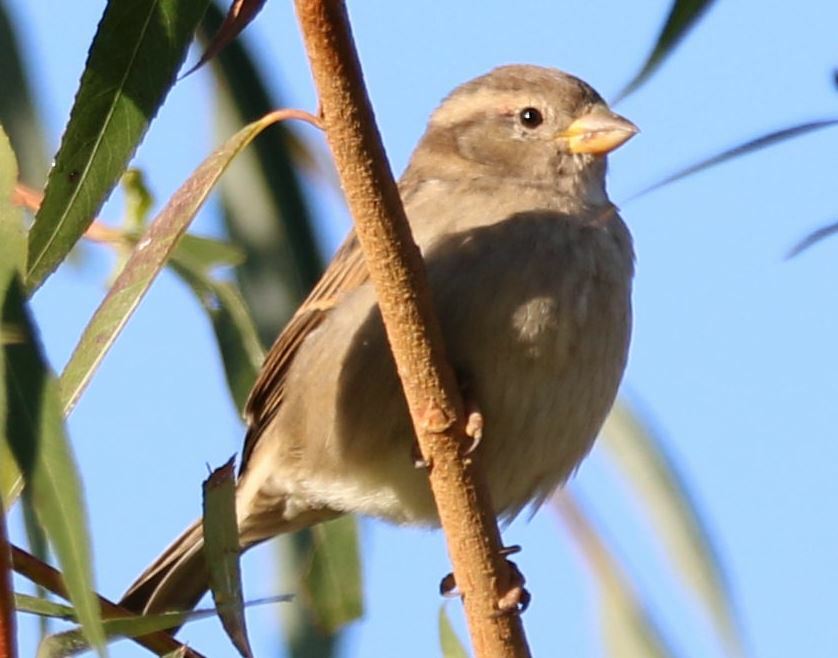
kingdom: Animalia
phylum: Chordata
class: Aves
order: Passeriformes
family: Passeridae
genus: Passer
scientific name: Passer domesticus
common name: House sparrow
